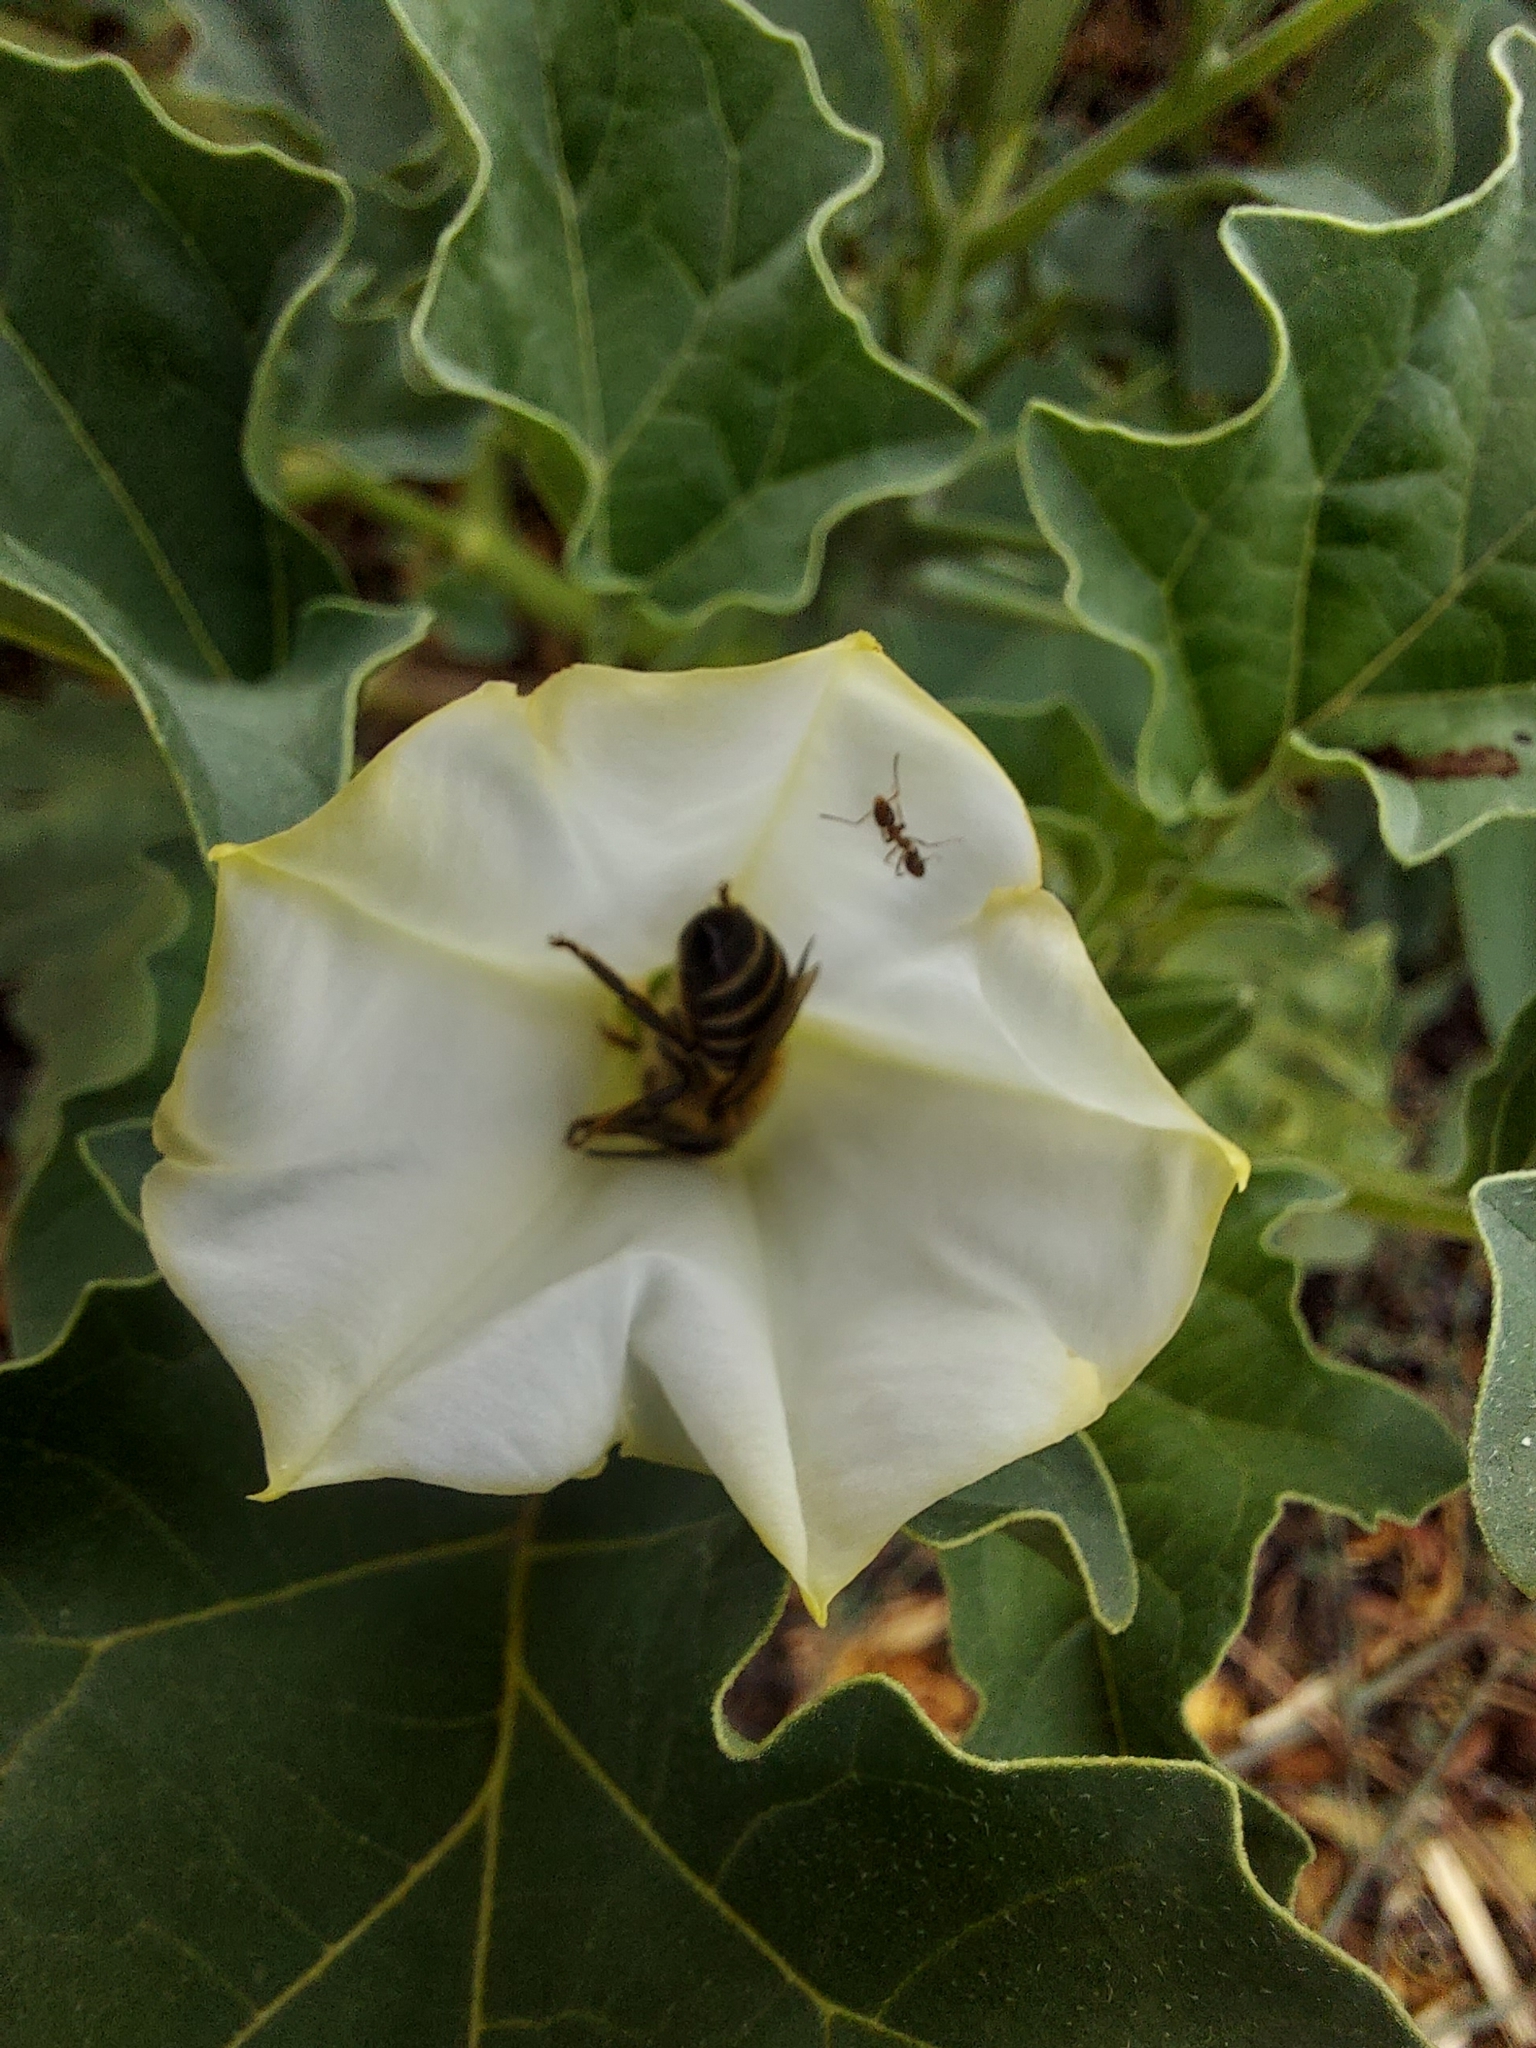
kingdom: Animalia
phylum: Arthropoda
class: Insecta
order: Hymenoptera
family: Apidae
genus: Apis
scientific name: Apis mellifera
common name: Honey bee
